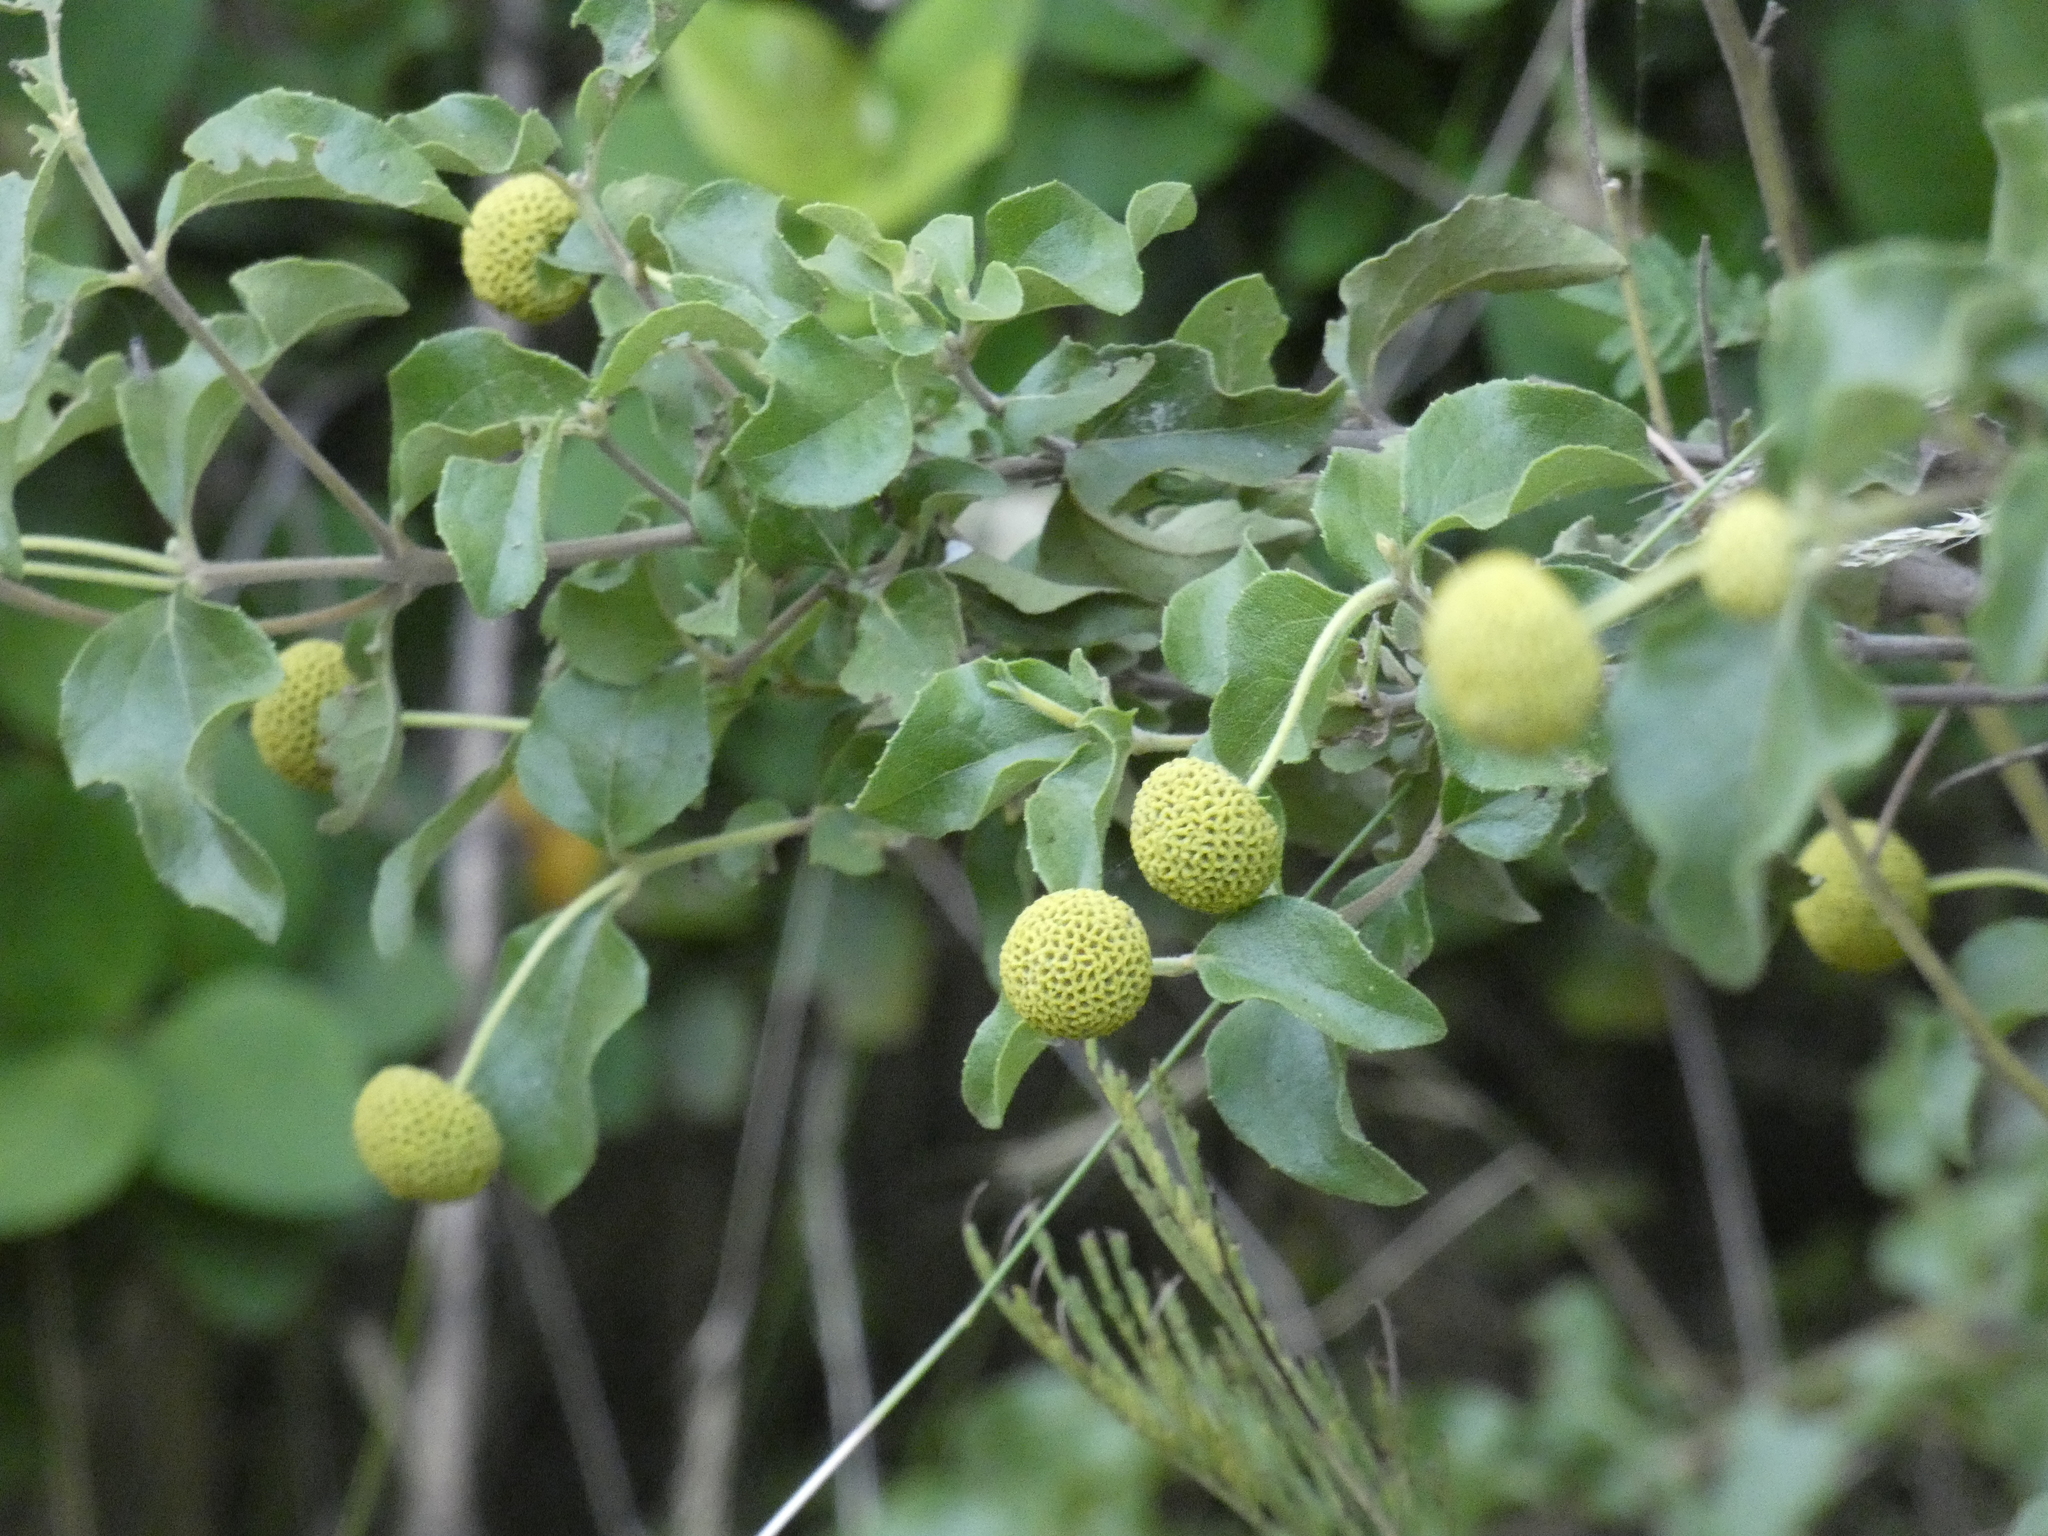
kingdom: Plantae
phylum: Tracheophyta
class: Magnoliopsida
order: Asterales
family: Asteraceae
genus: Podanthus
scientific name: Podanthus mitiqui
